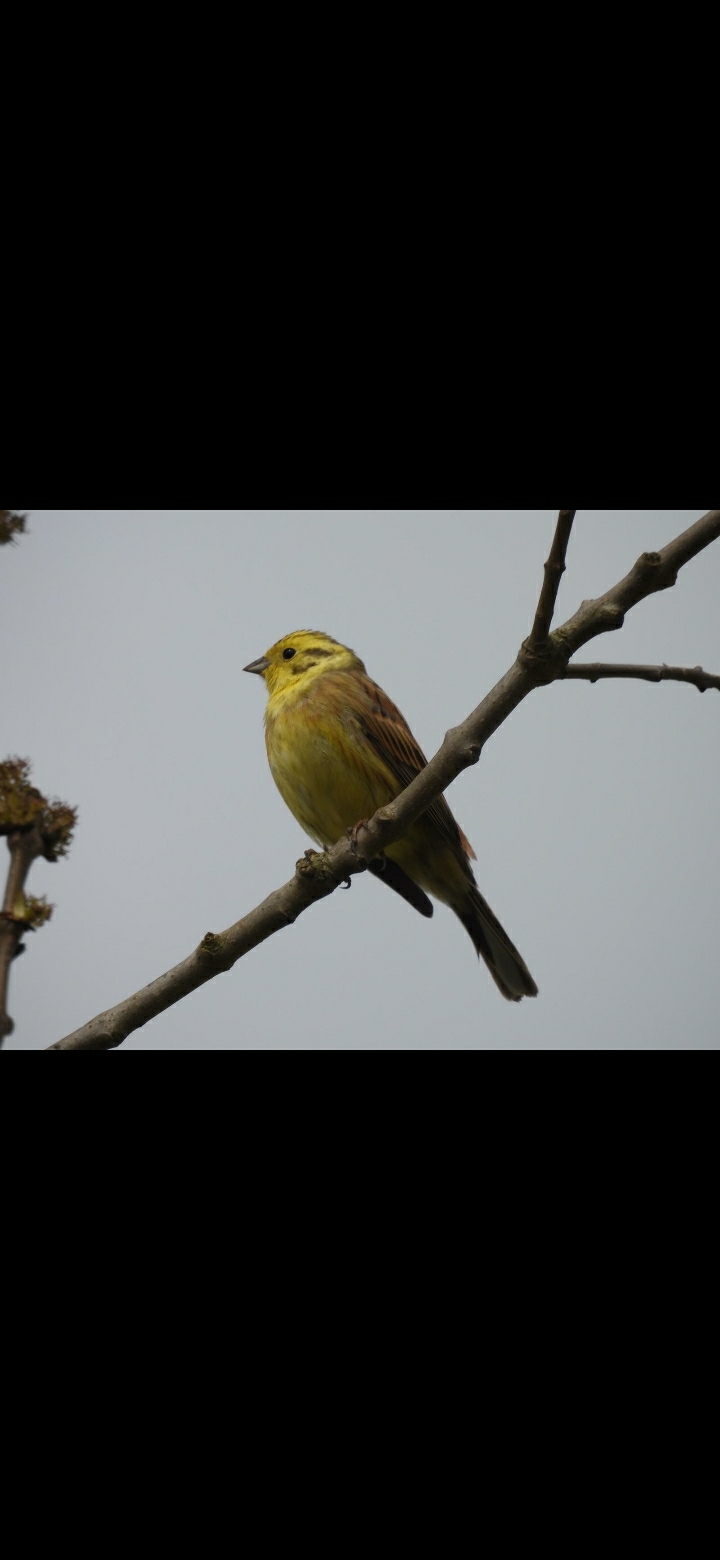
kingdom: Animalia
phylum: Chordata
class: Aves
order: Passeriformes
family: Emberizidae
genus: Emberiza
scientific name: Emberiza citrinella
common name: Yellowhammer
